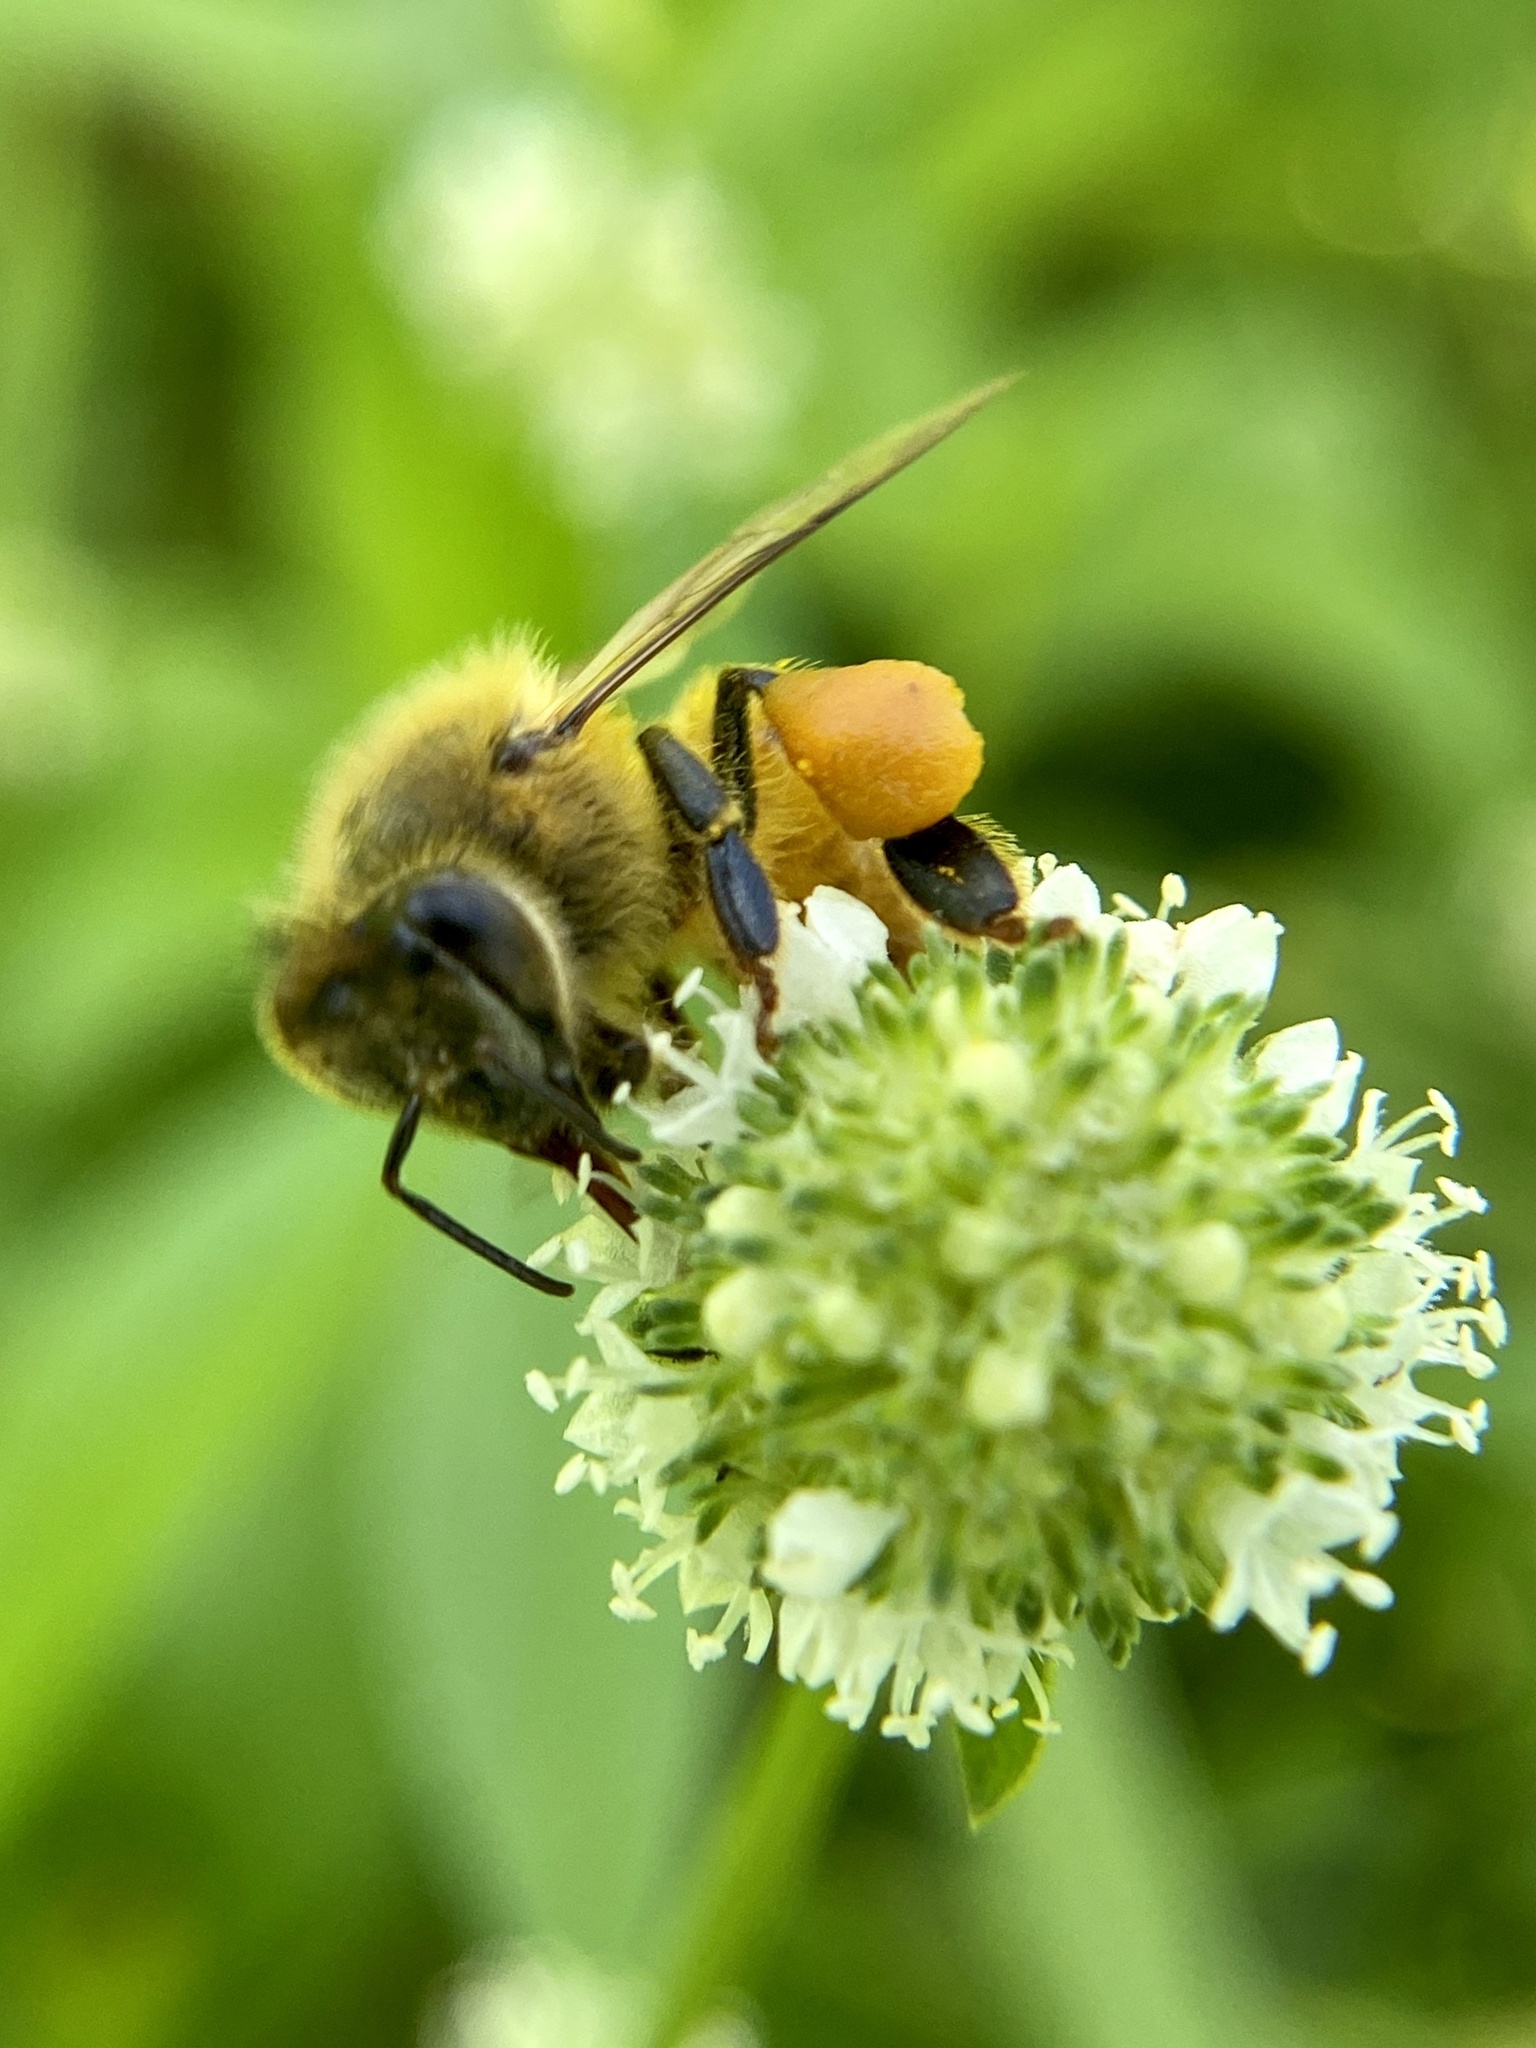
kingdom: Animalia
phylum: Arthropoda
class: Insecta
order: Hymenoptera
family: Apidae
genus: Apis
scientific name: Apis mellifera
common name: Honey bee
